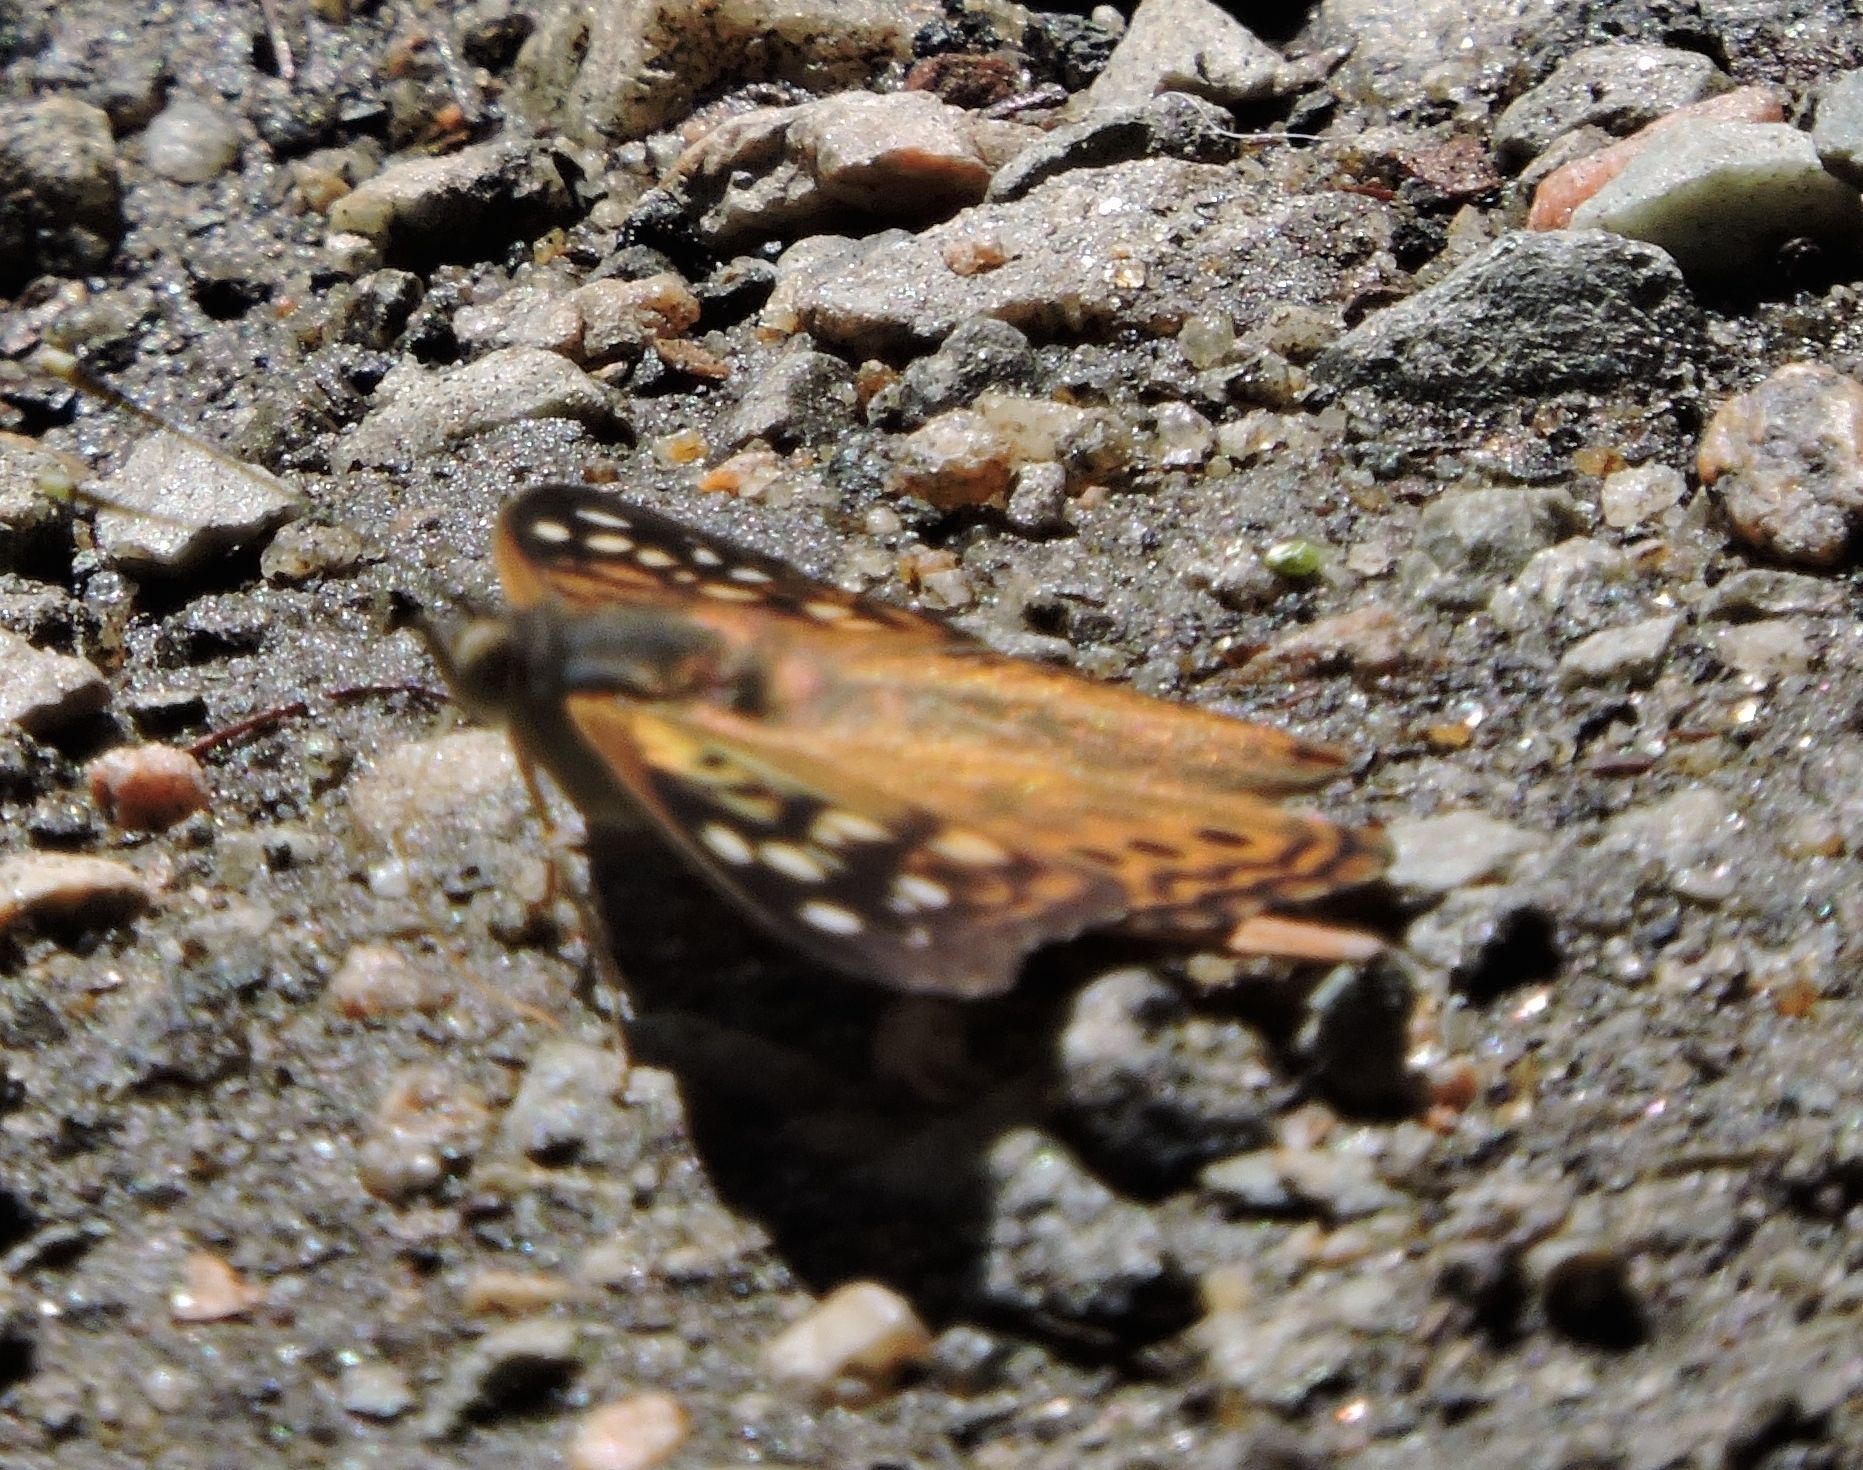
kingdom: Animalia
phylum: Arthropoda
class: Insecta
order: Lepidoptera
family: Nymphalidae
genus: Asterocampa
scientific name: Asterocampa celtis
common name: Hackberry emperor
